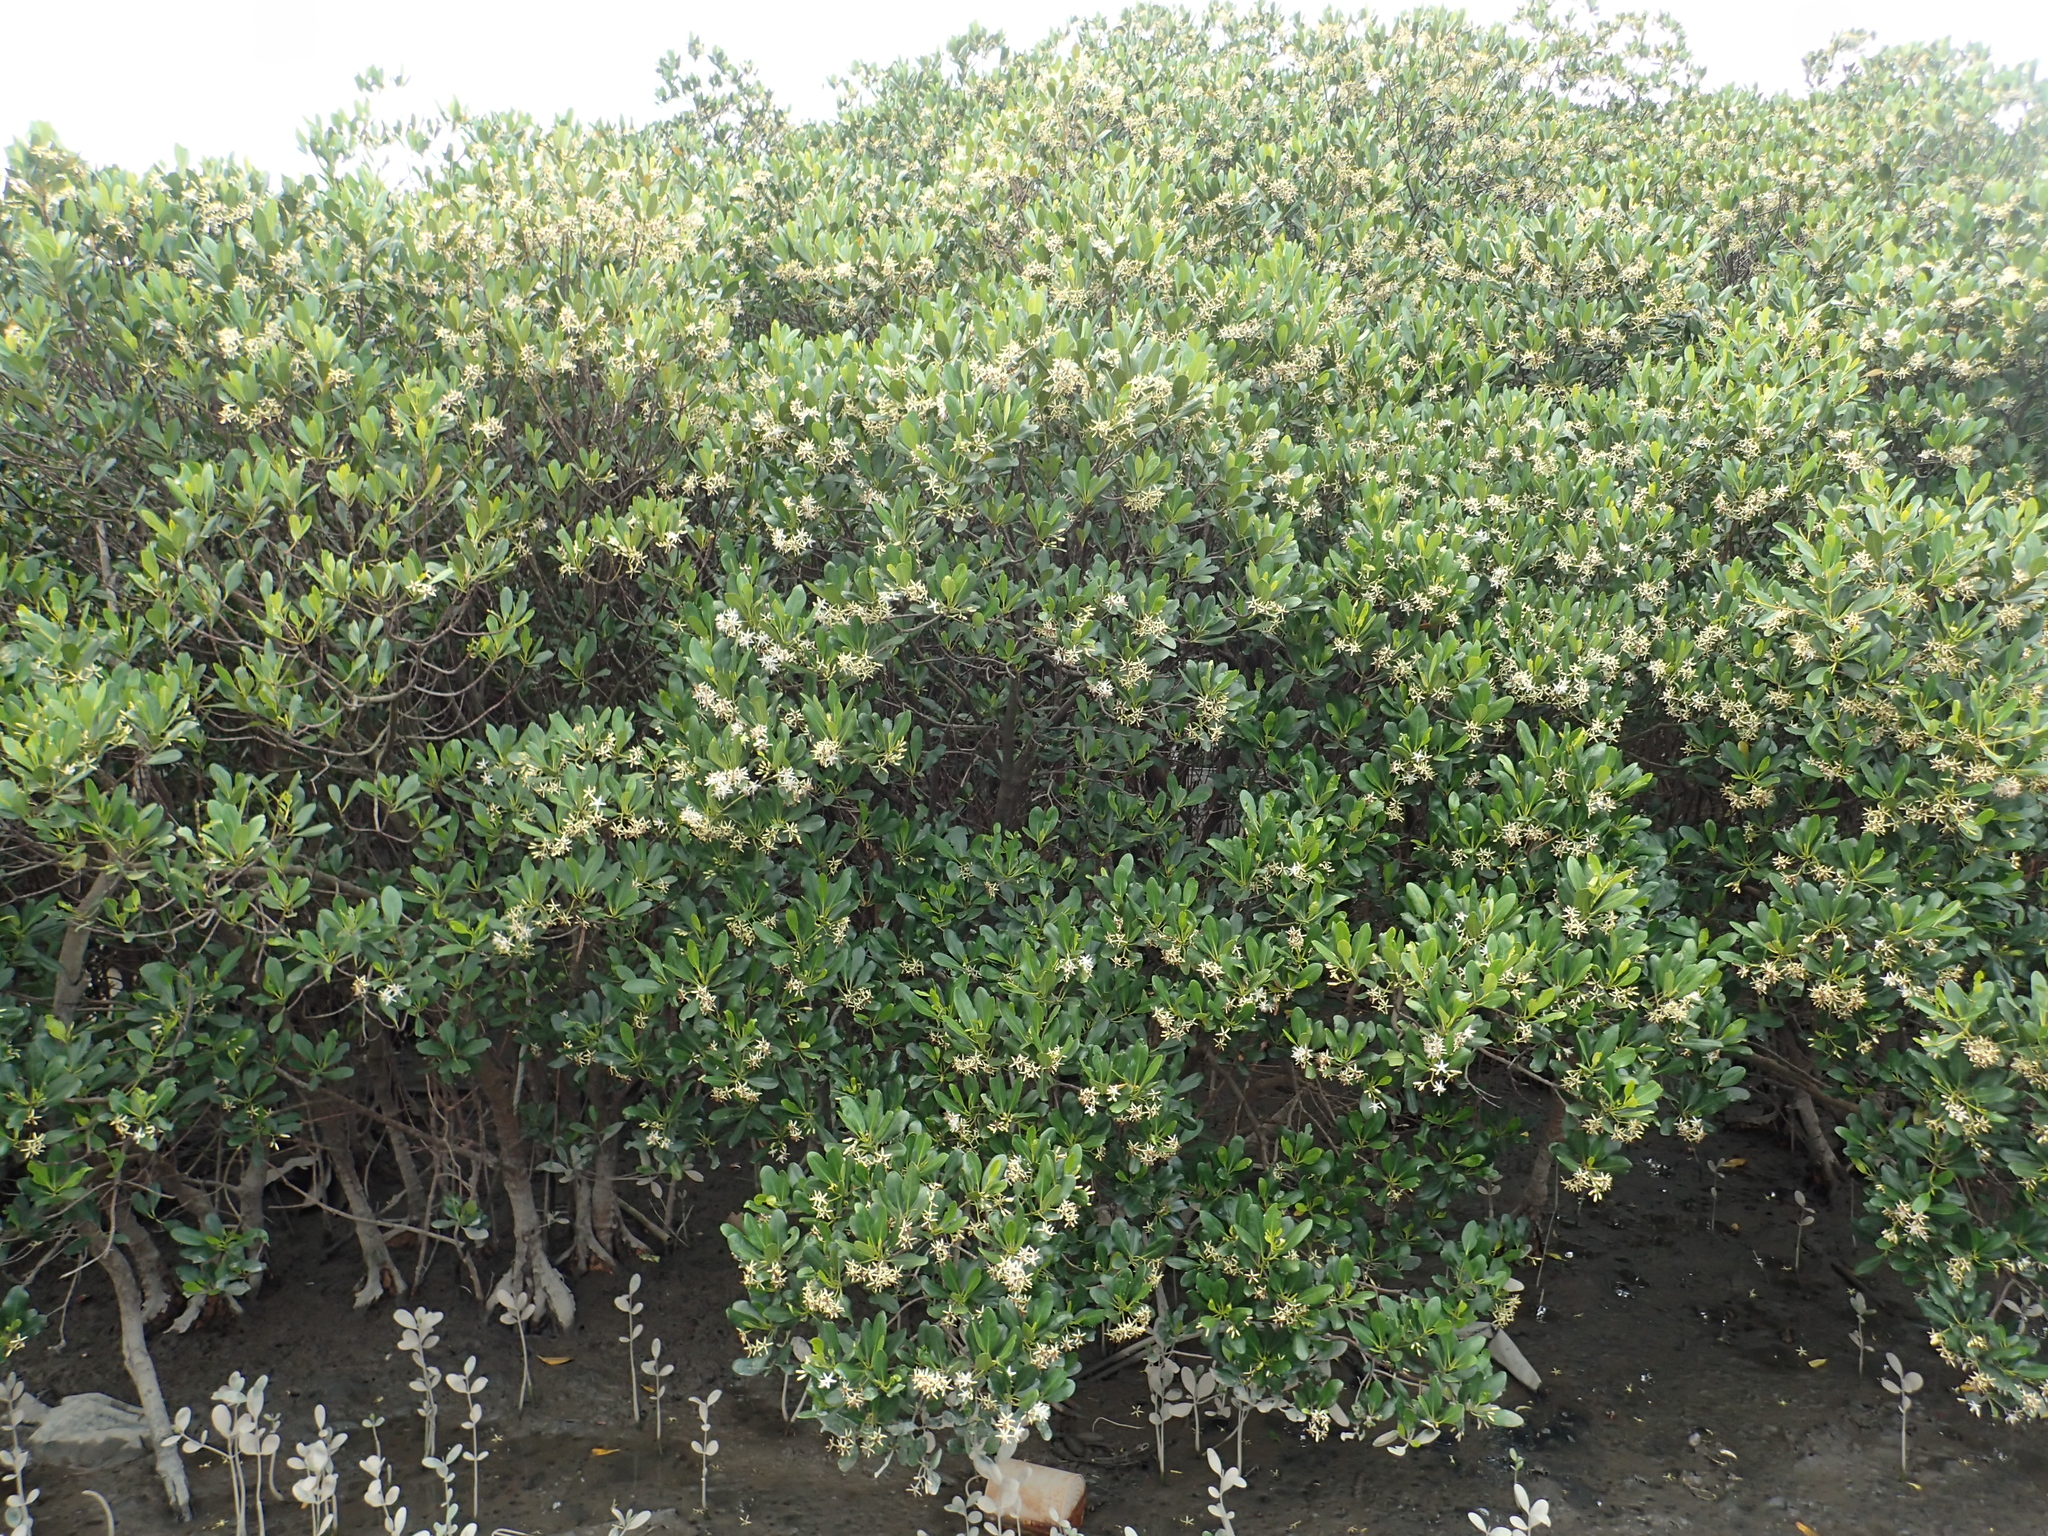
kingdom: Plantae
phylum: Tracheophyta
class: Magnoliopsida
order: Malpighiales
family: Rhizophoraceae
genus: Kandelia
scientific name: Kandelia obovata
